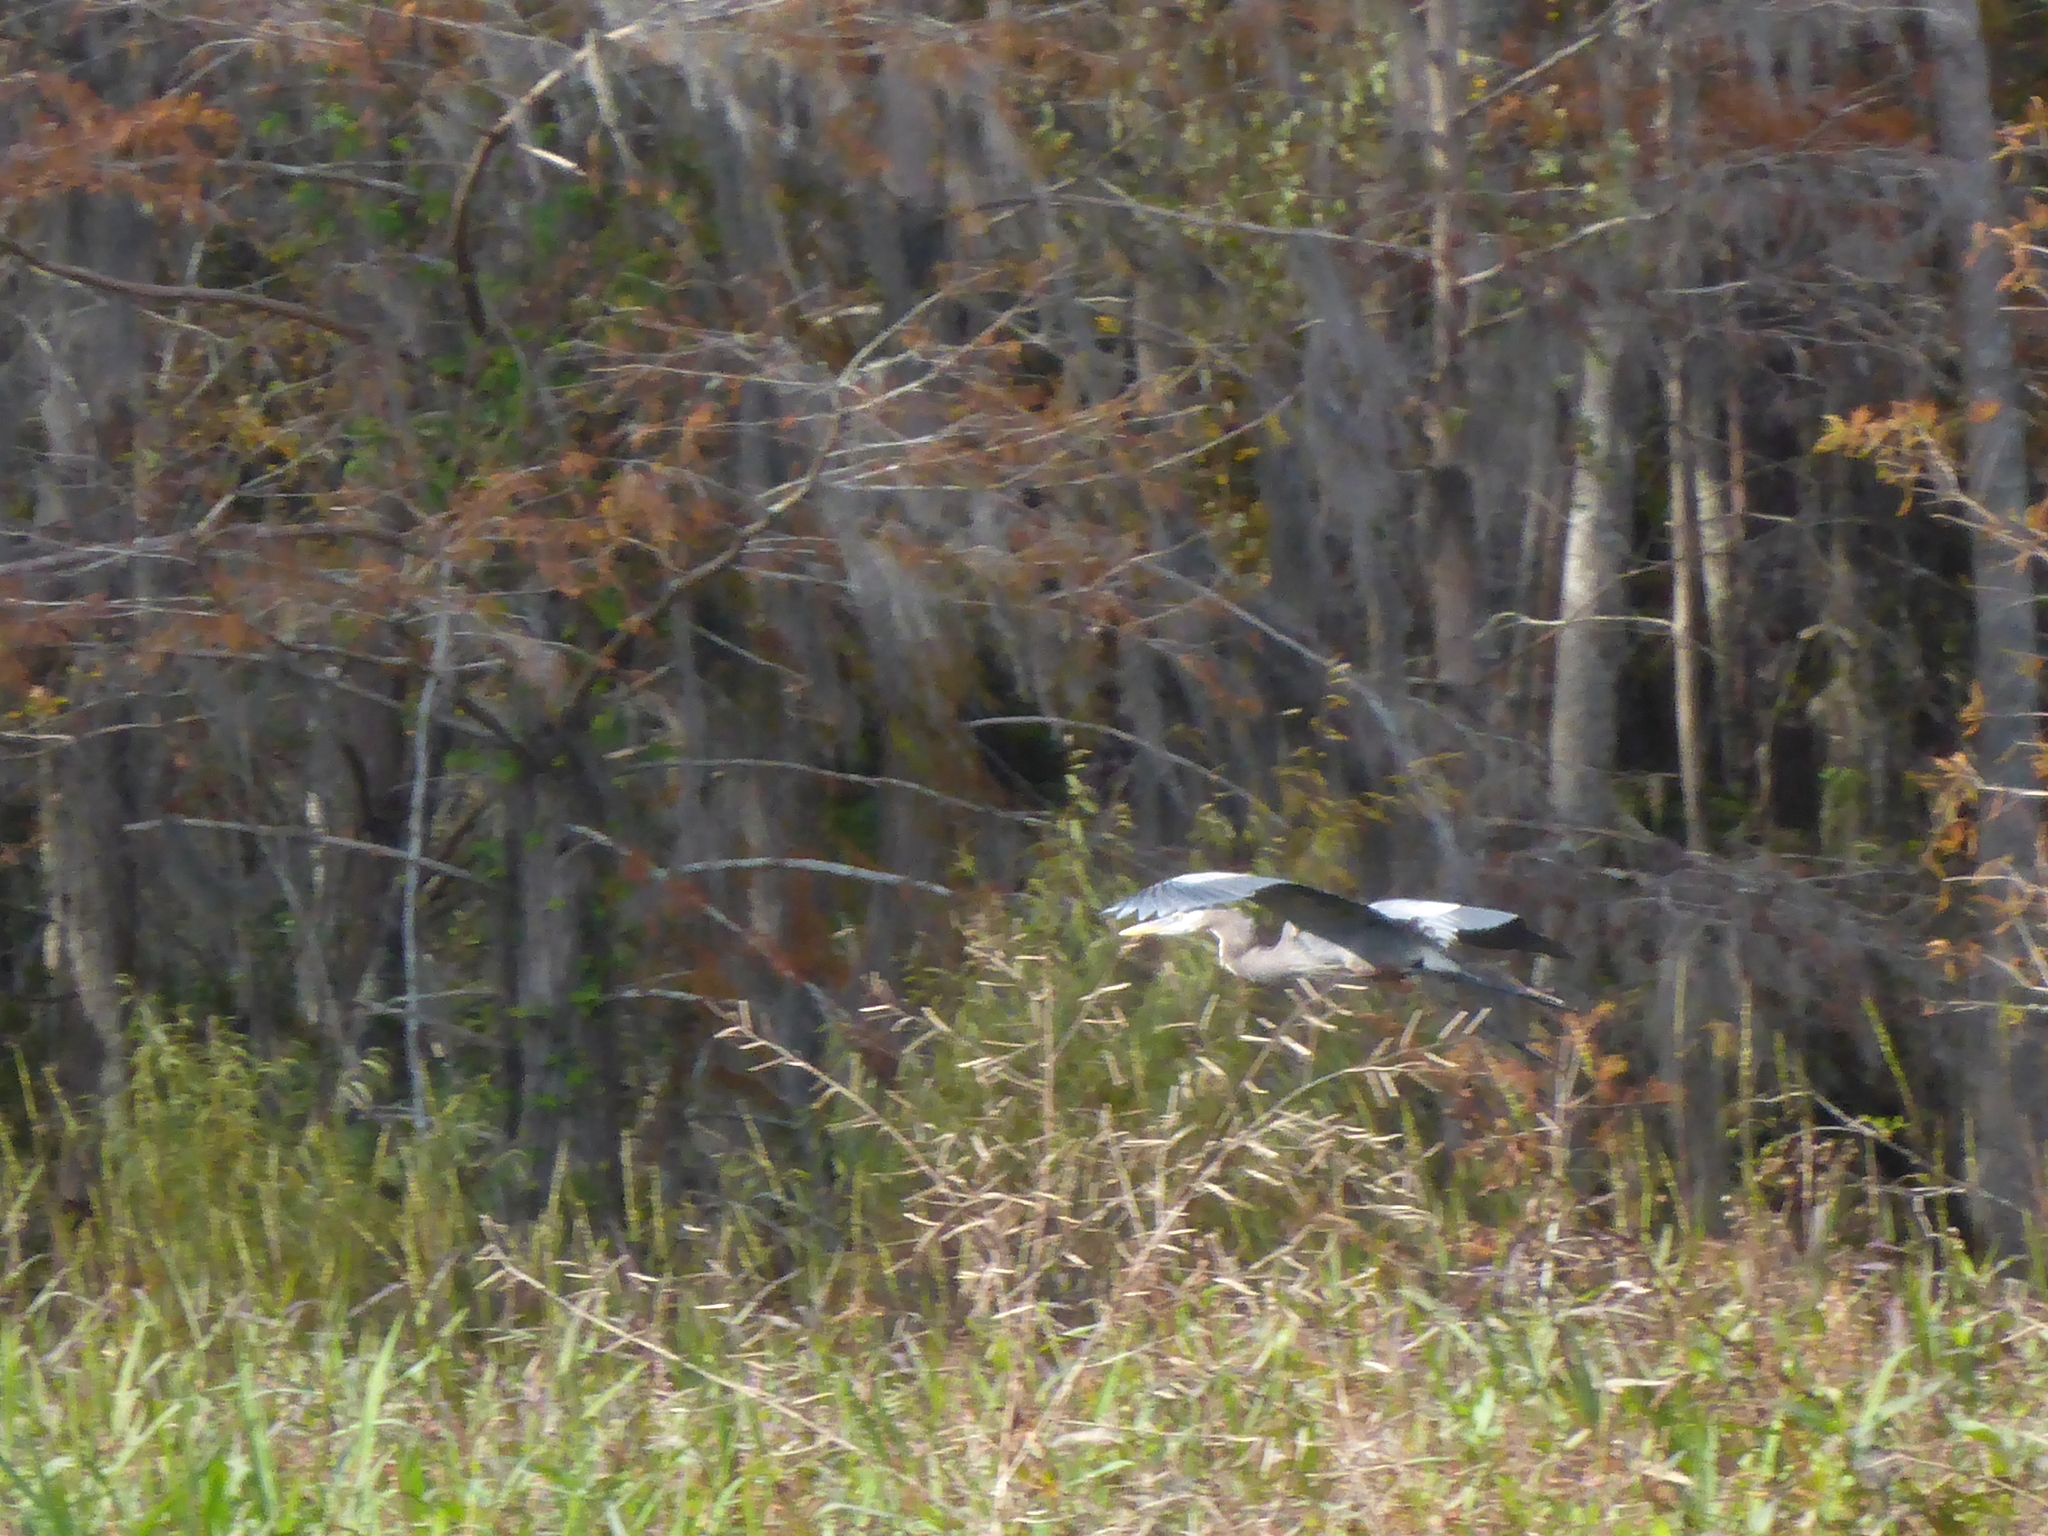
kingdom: Animalia
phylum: Chordata
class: Aves
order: Pelecaniformes
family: Ardeidae
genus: Ardea
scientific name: Ardea herodias
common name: Great blue heron
